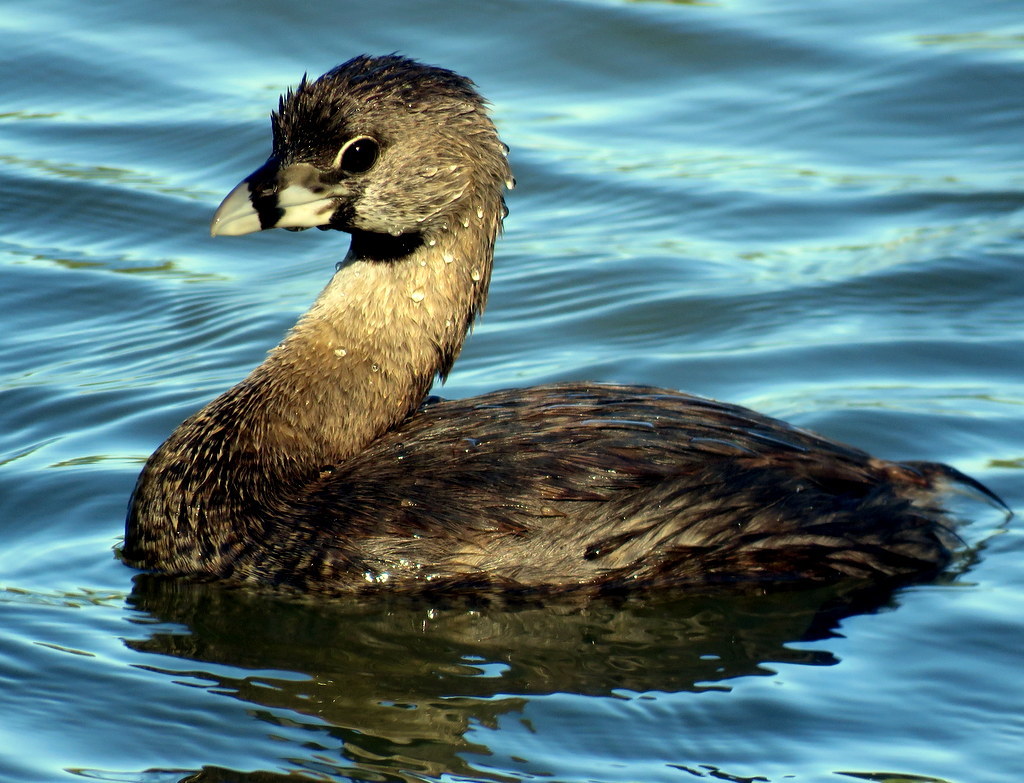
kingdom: Animalia
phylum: Chordata
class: Aves
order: Podicipediformes
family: Podicipedidae
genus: Podilymbus
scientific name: Podilymbus podiceps
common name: Pied-billed grebe
